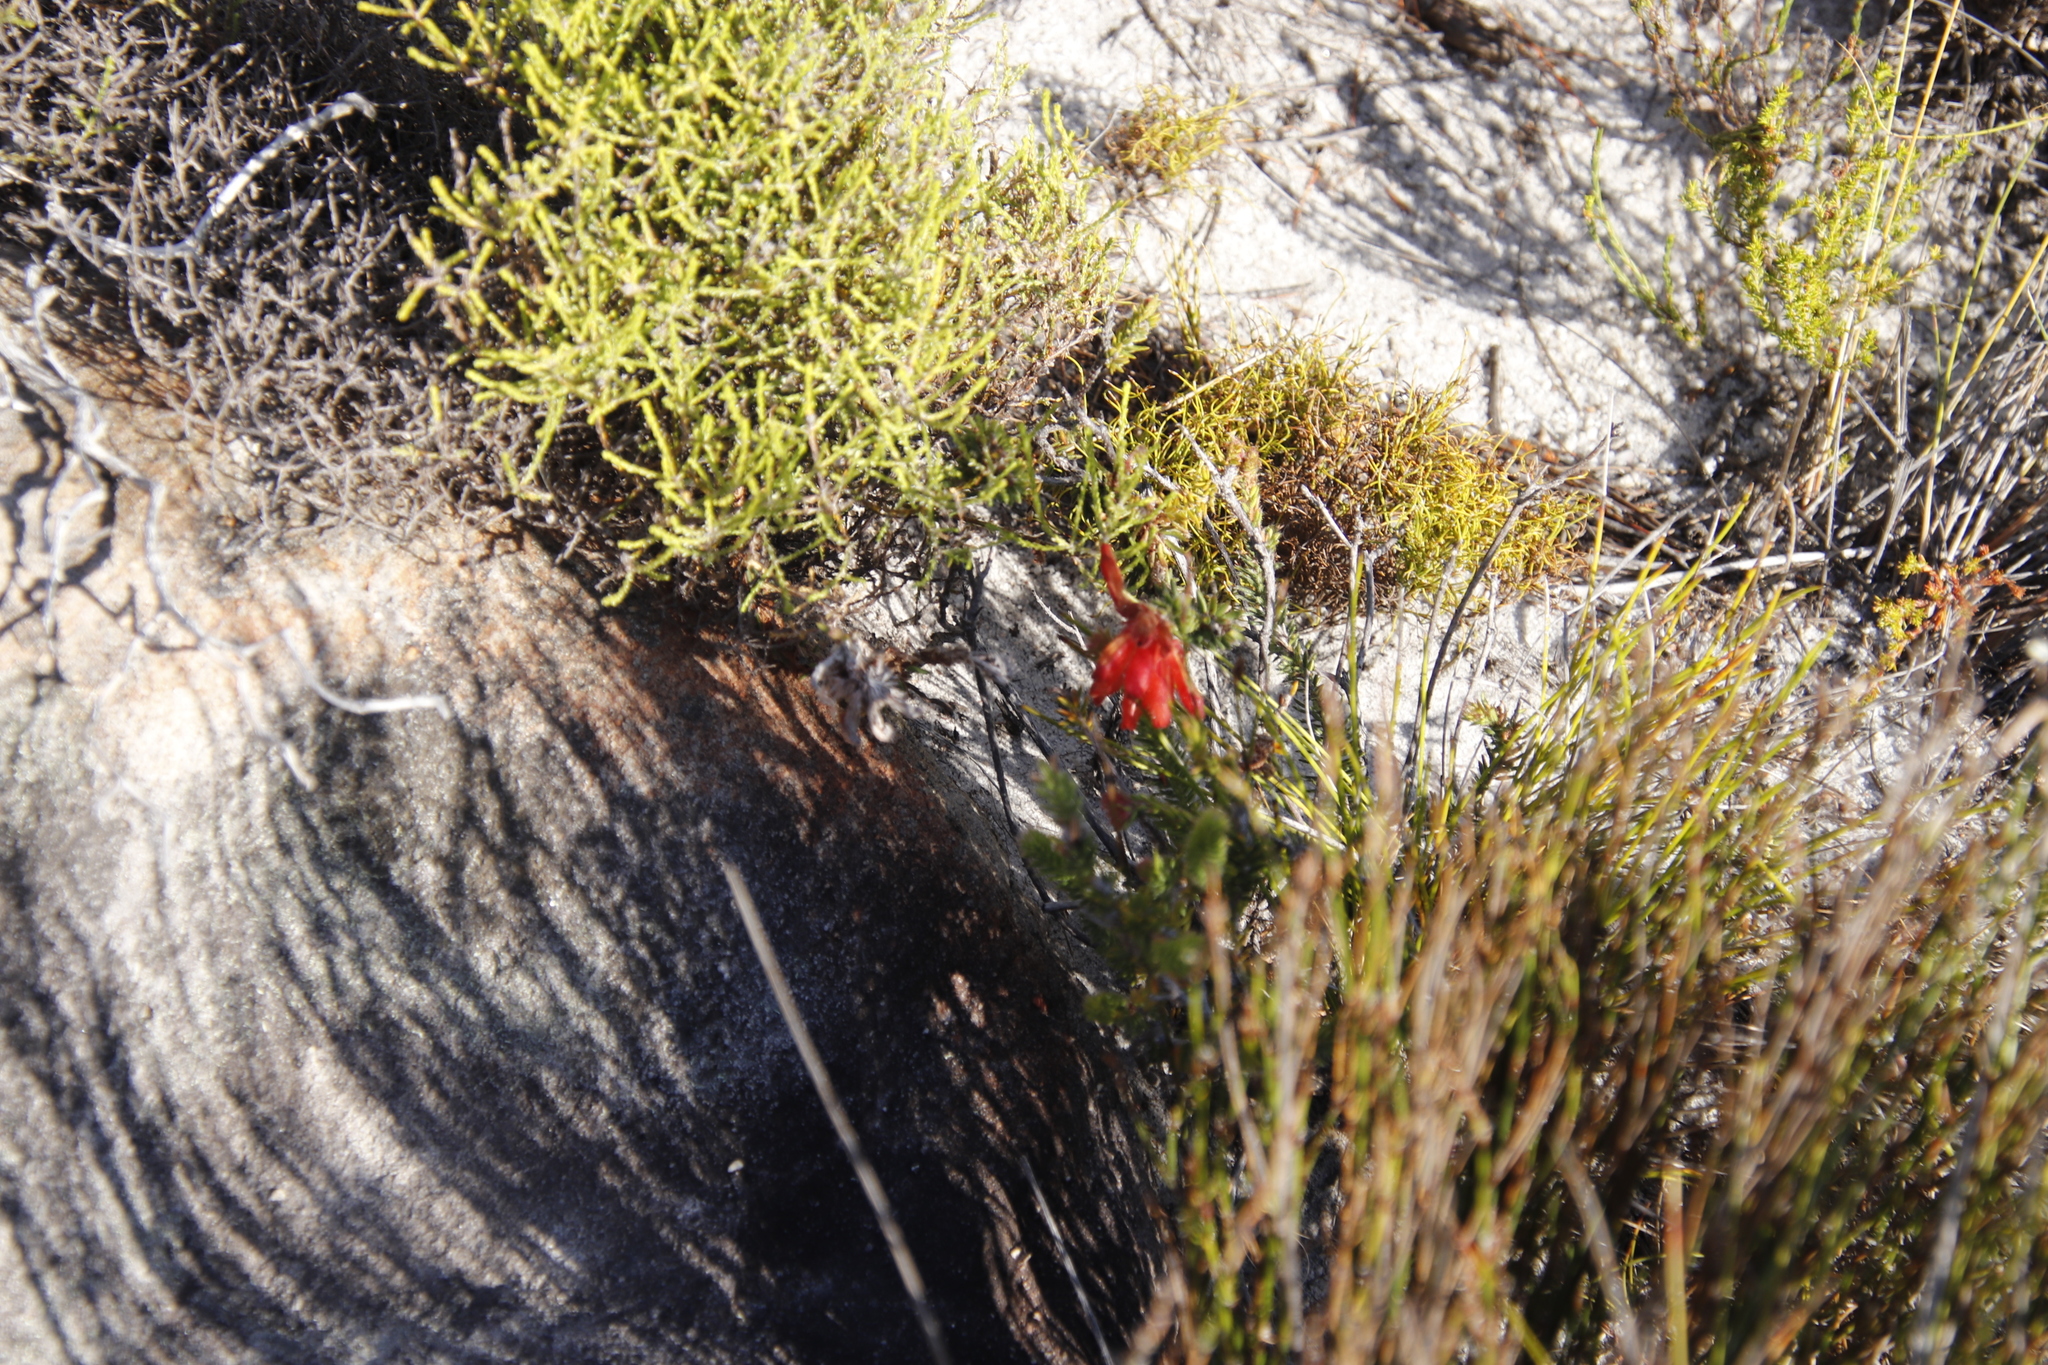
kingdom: Plantae
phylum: Tracheophyta
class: Magnoliopsida
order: Ericales
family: Ericaceae
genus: Erica
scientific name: Erica cerinthoides
